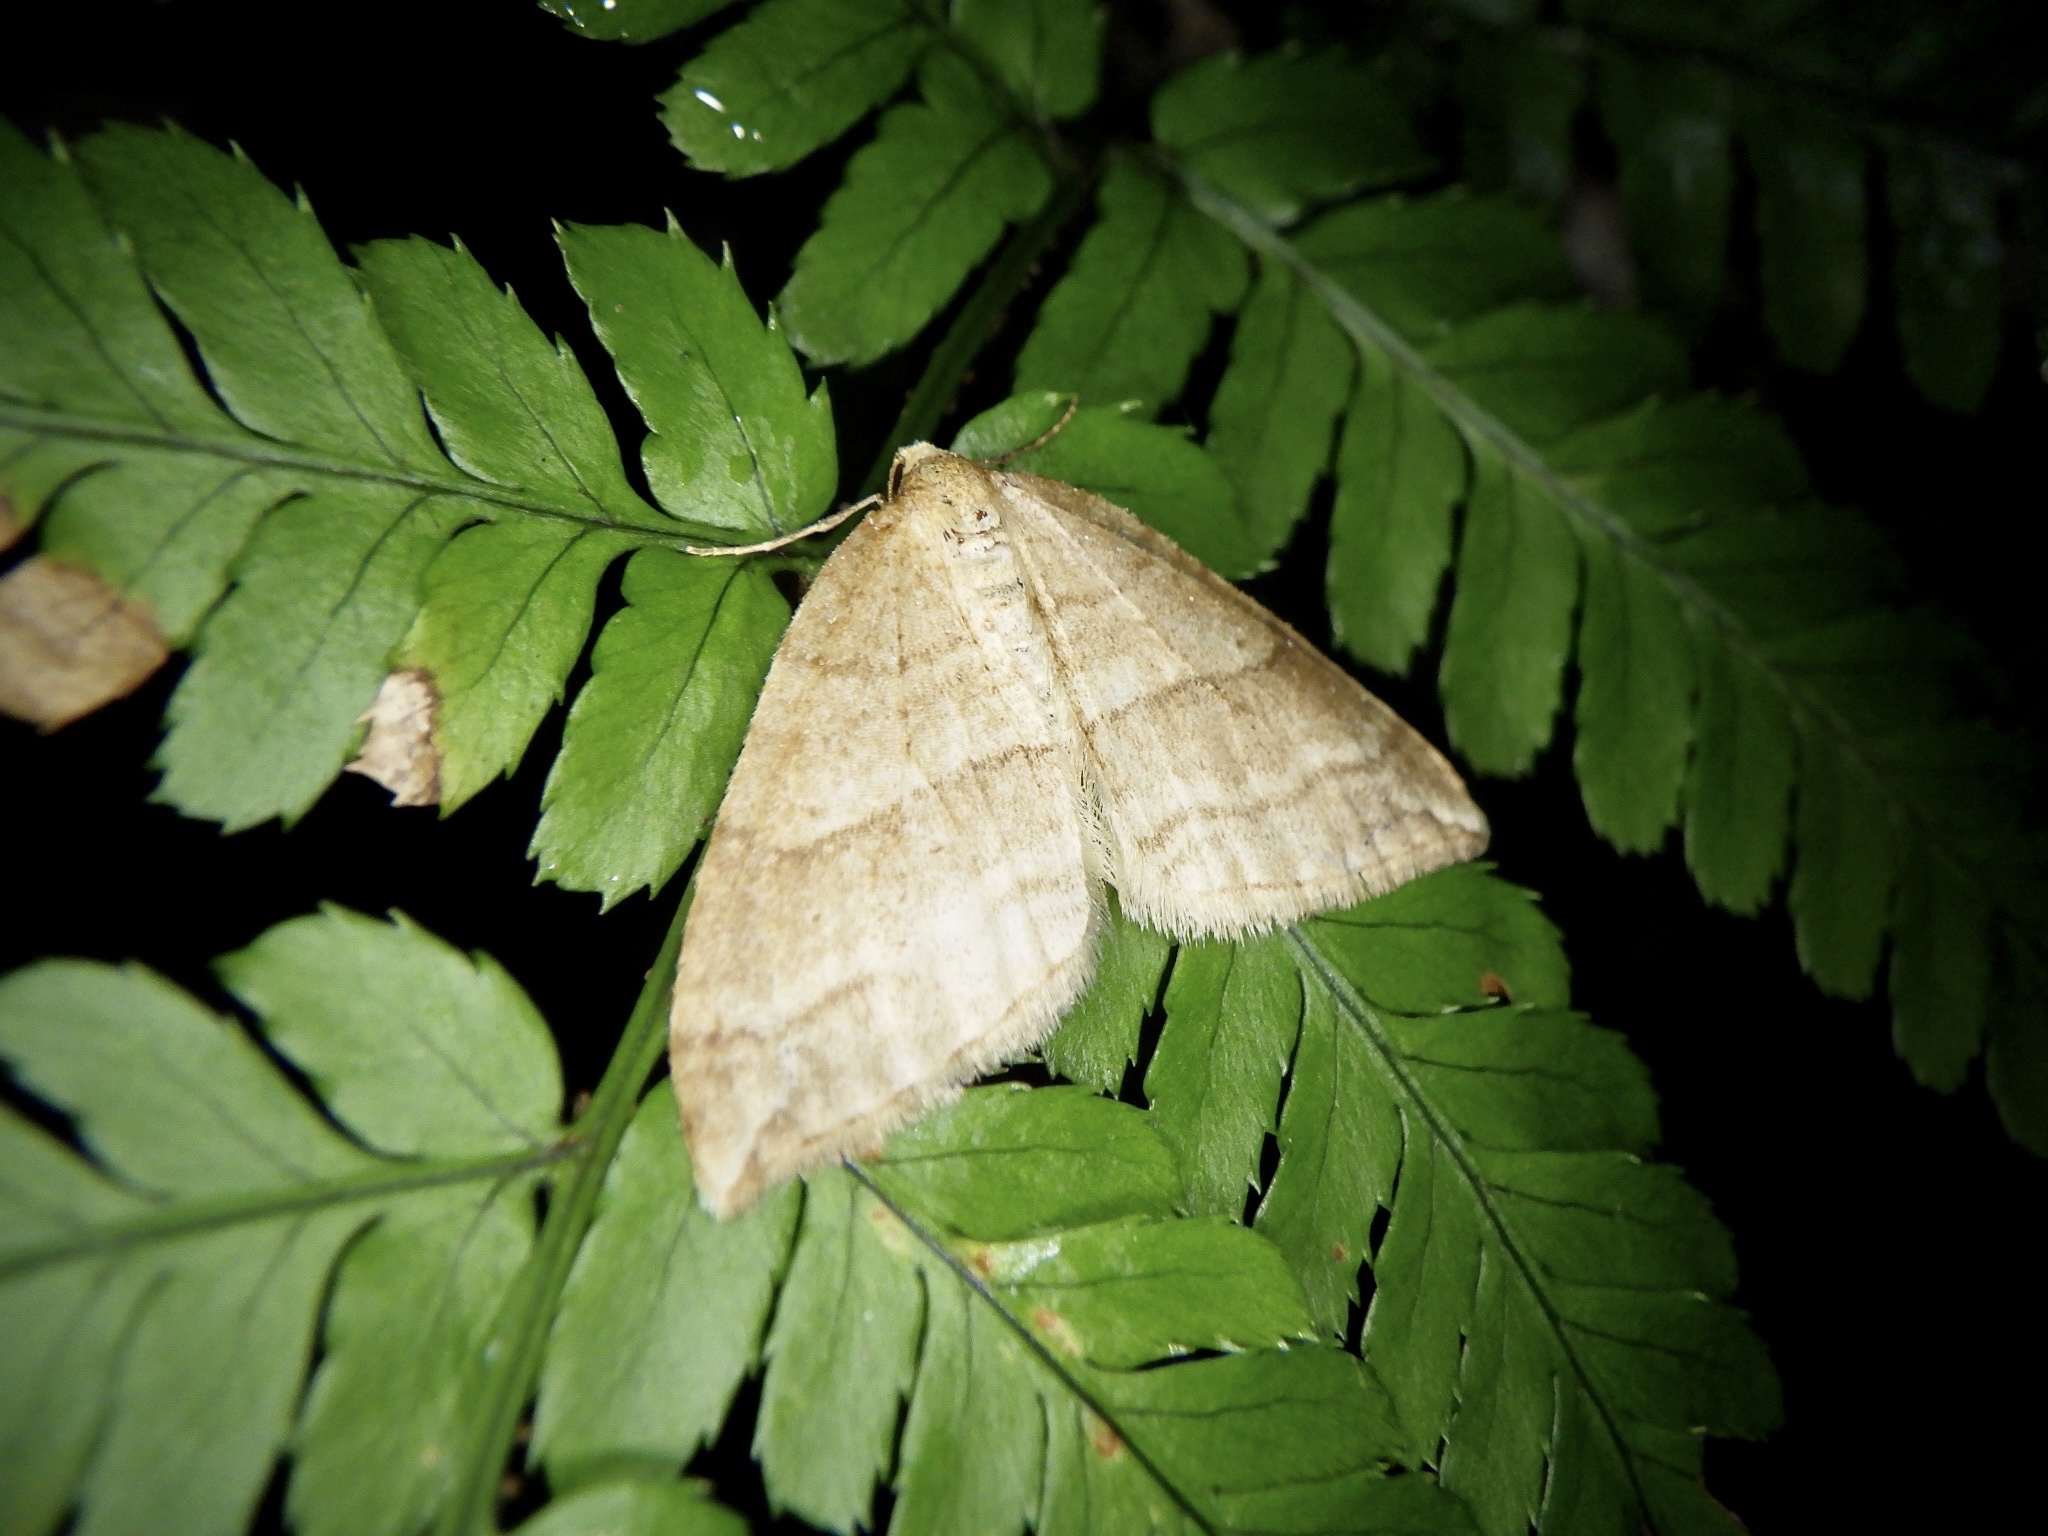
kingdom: Animalia
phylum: Arthropoda
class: Insecta
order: Lepidoptera
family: Geometridae
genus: Nothoporinia
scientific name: Nothoporinia mediolineata
